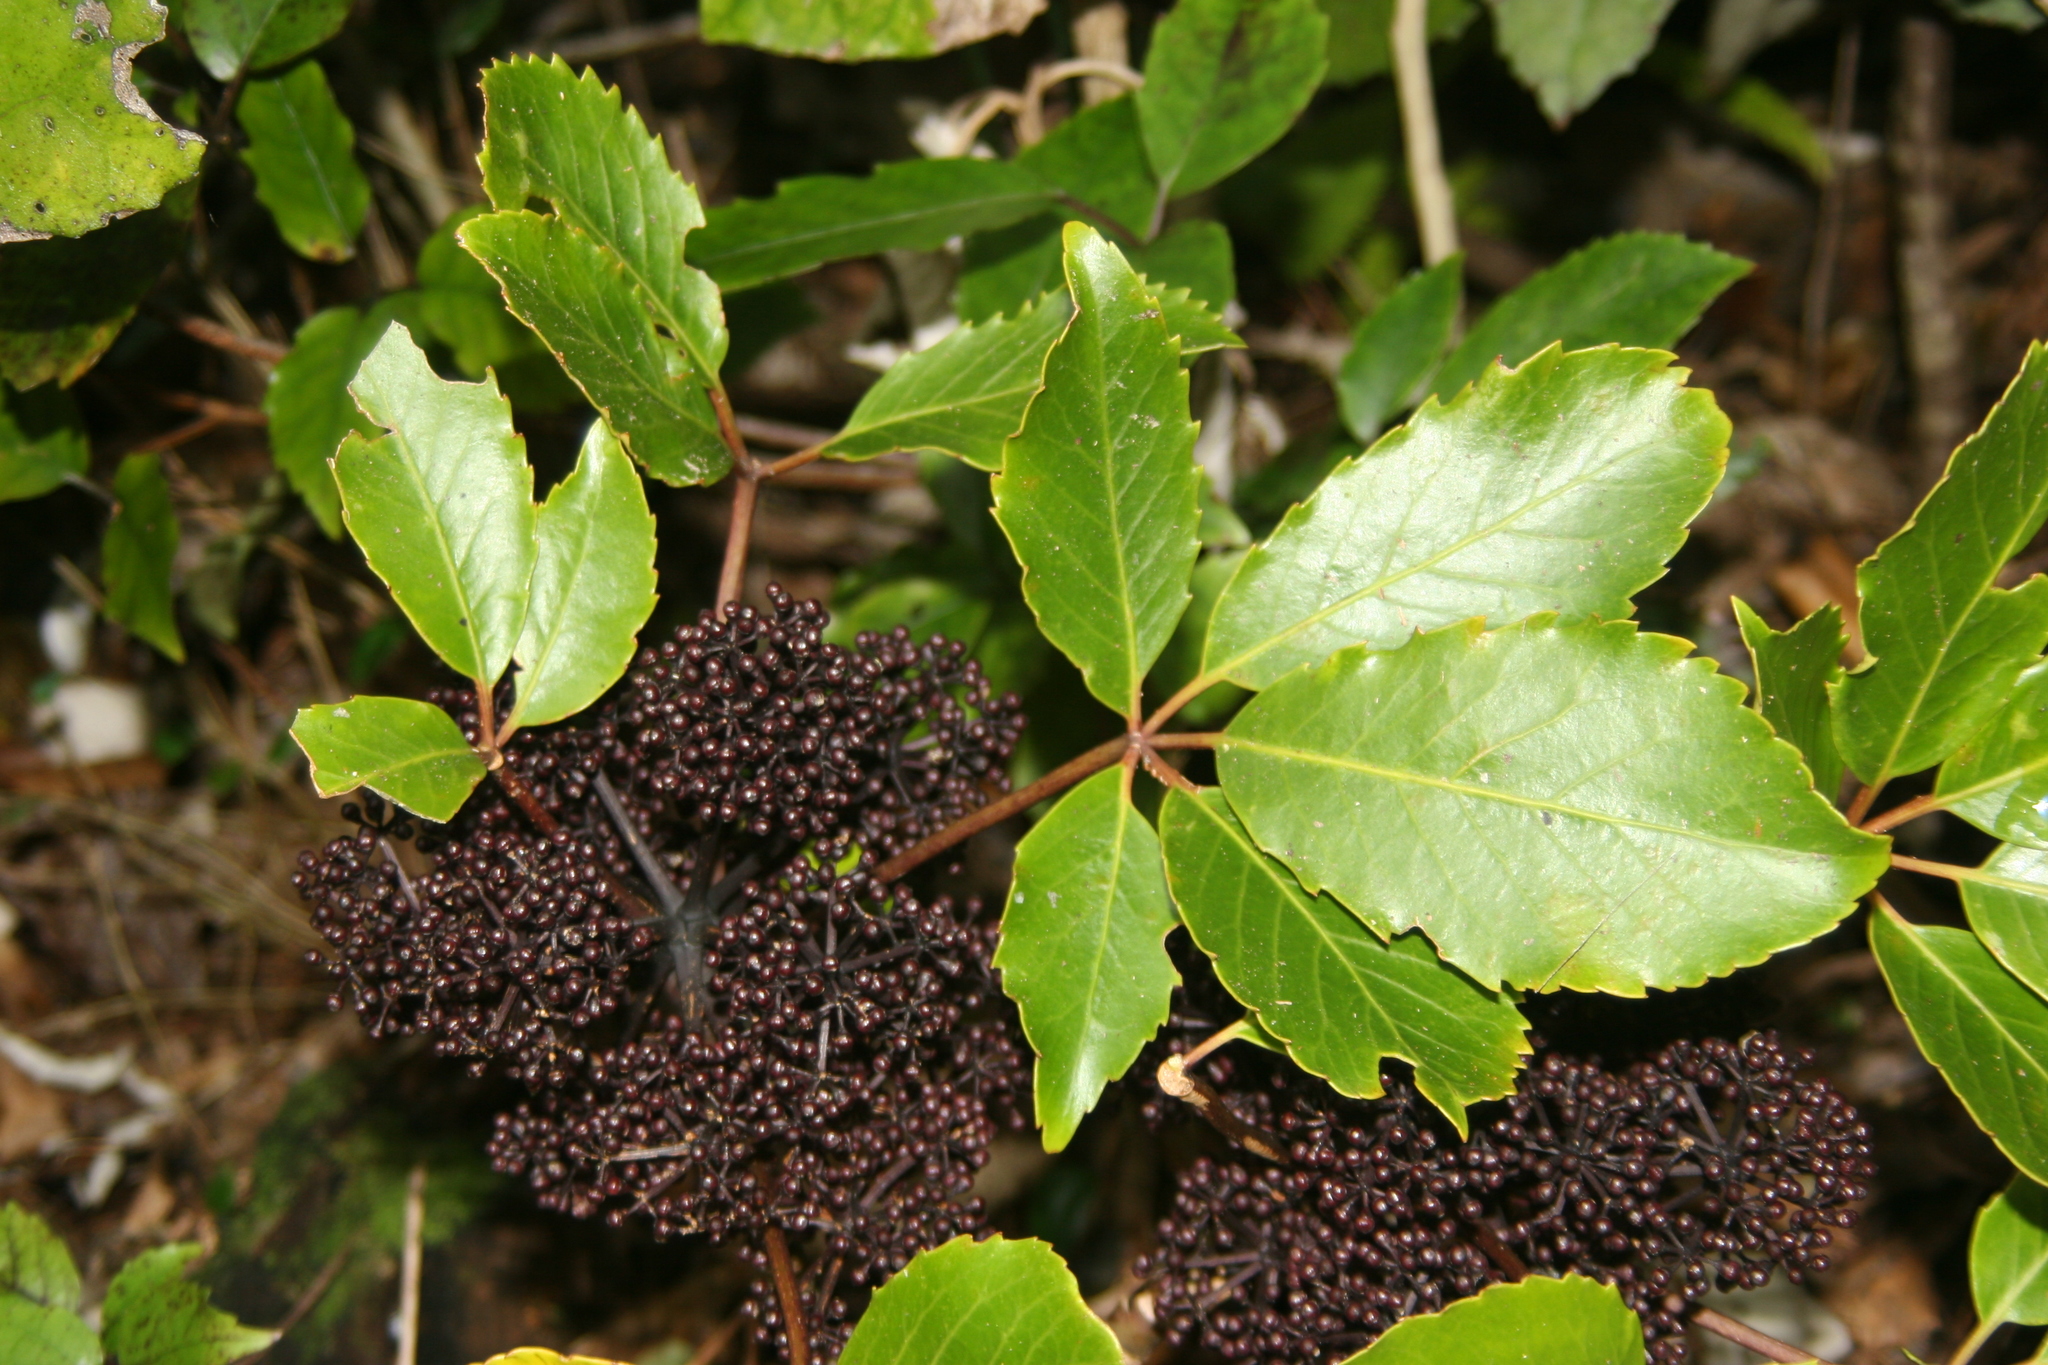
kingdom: Plantae
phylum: Tracheophyta
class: Magnoliopsida
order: Apiales
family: Araliaceae
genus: Neopanax
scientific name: Neopanax arboreus
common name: Five-fingers
